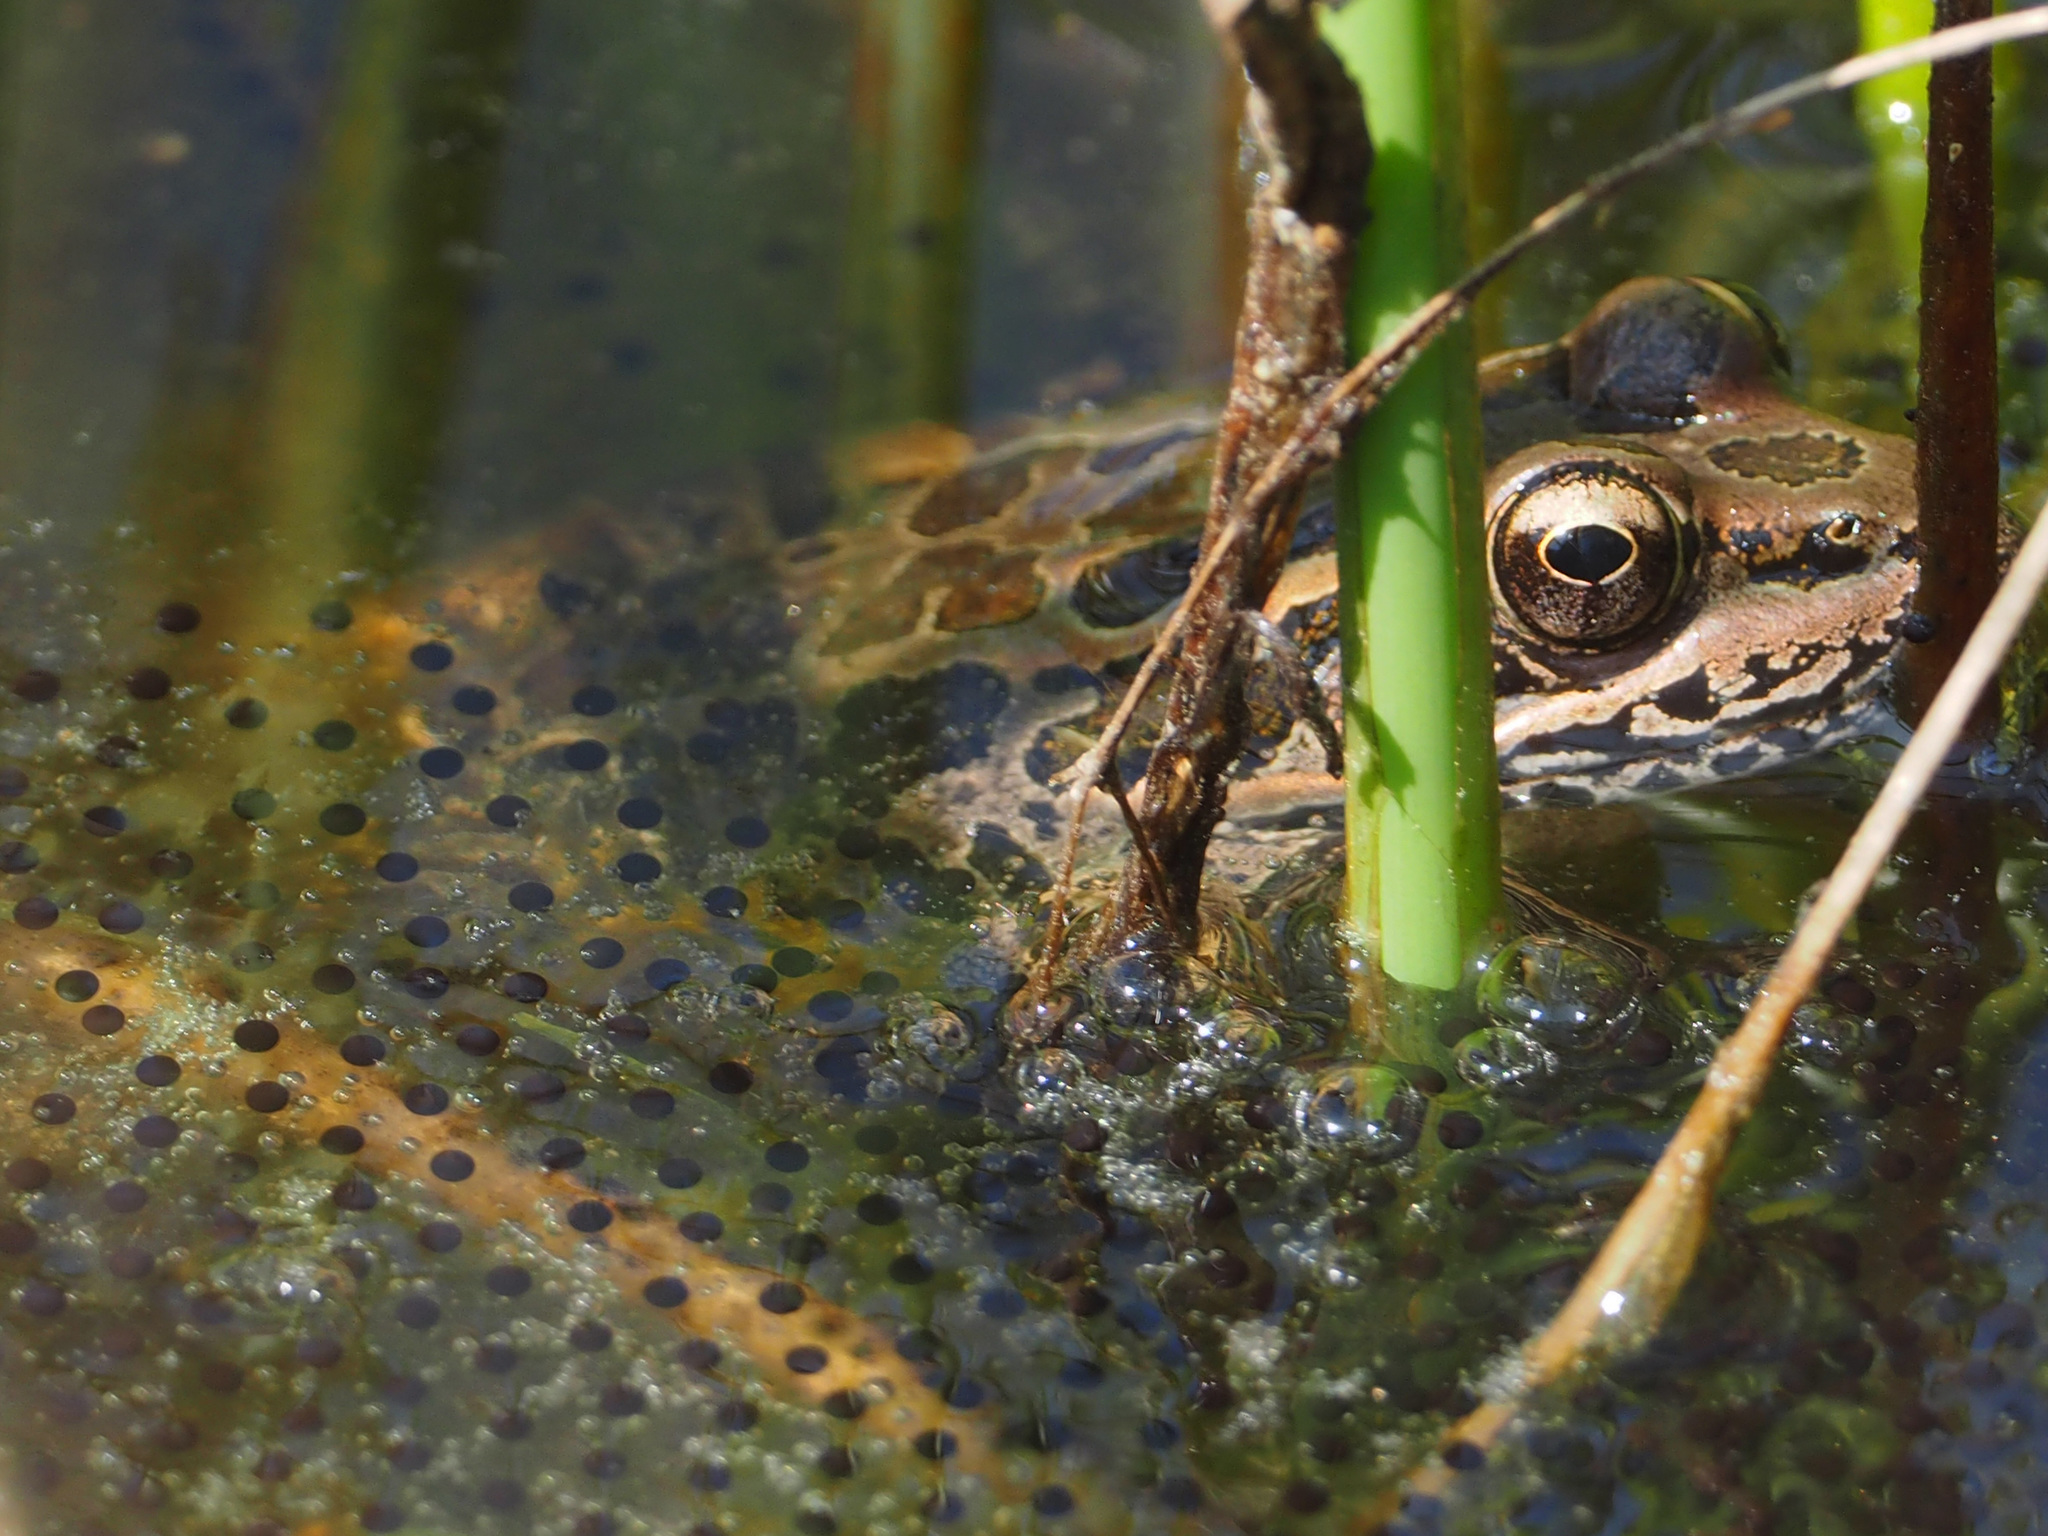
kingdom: Animalia
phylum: Chordata
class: Amphibia
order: Anura
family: Ranidae
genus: Lithobates
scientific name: Lithobates palustris
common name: Pickerel frog
